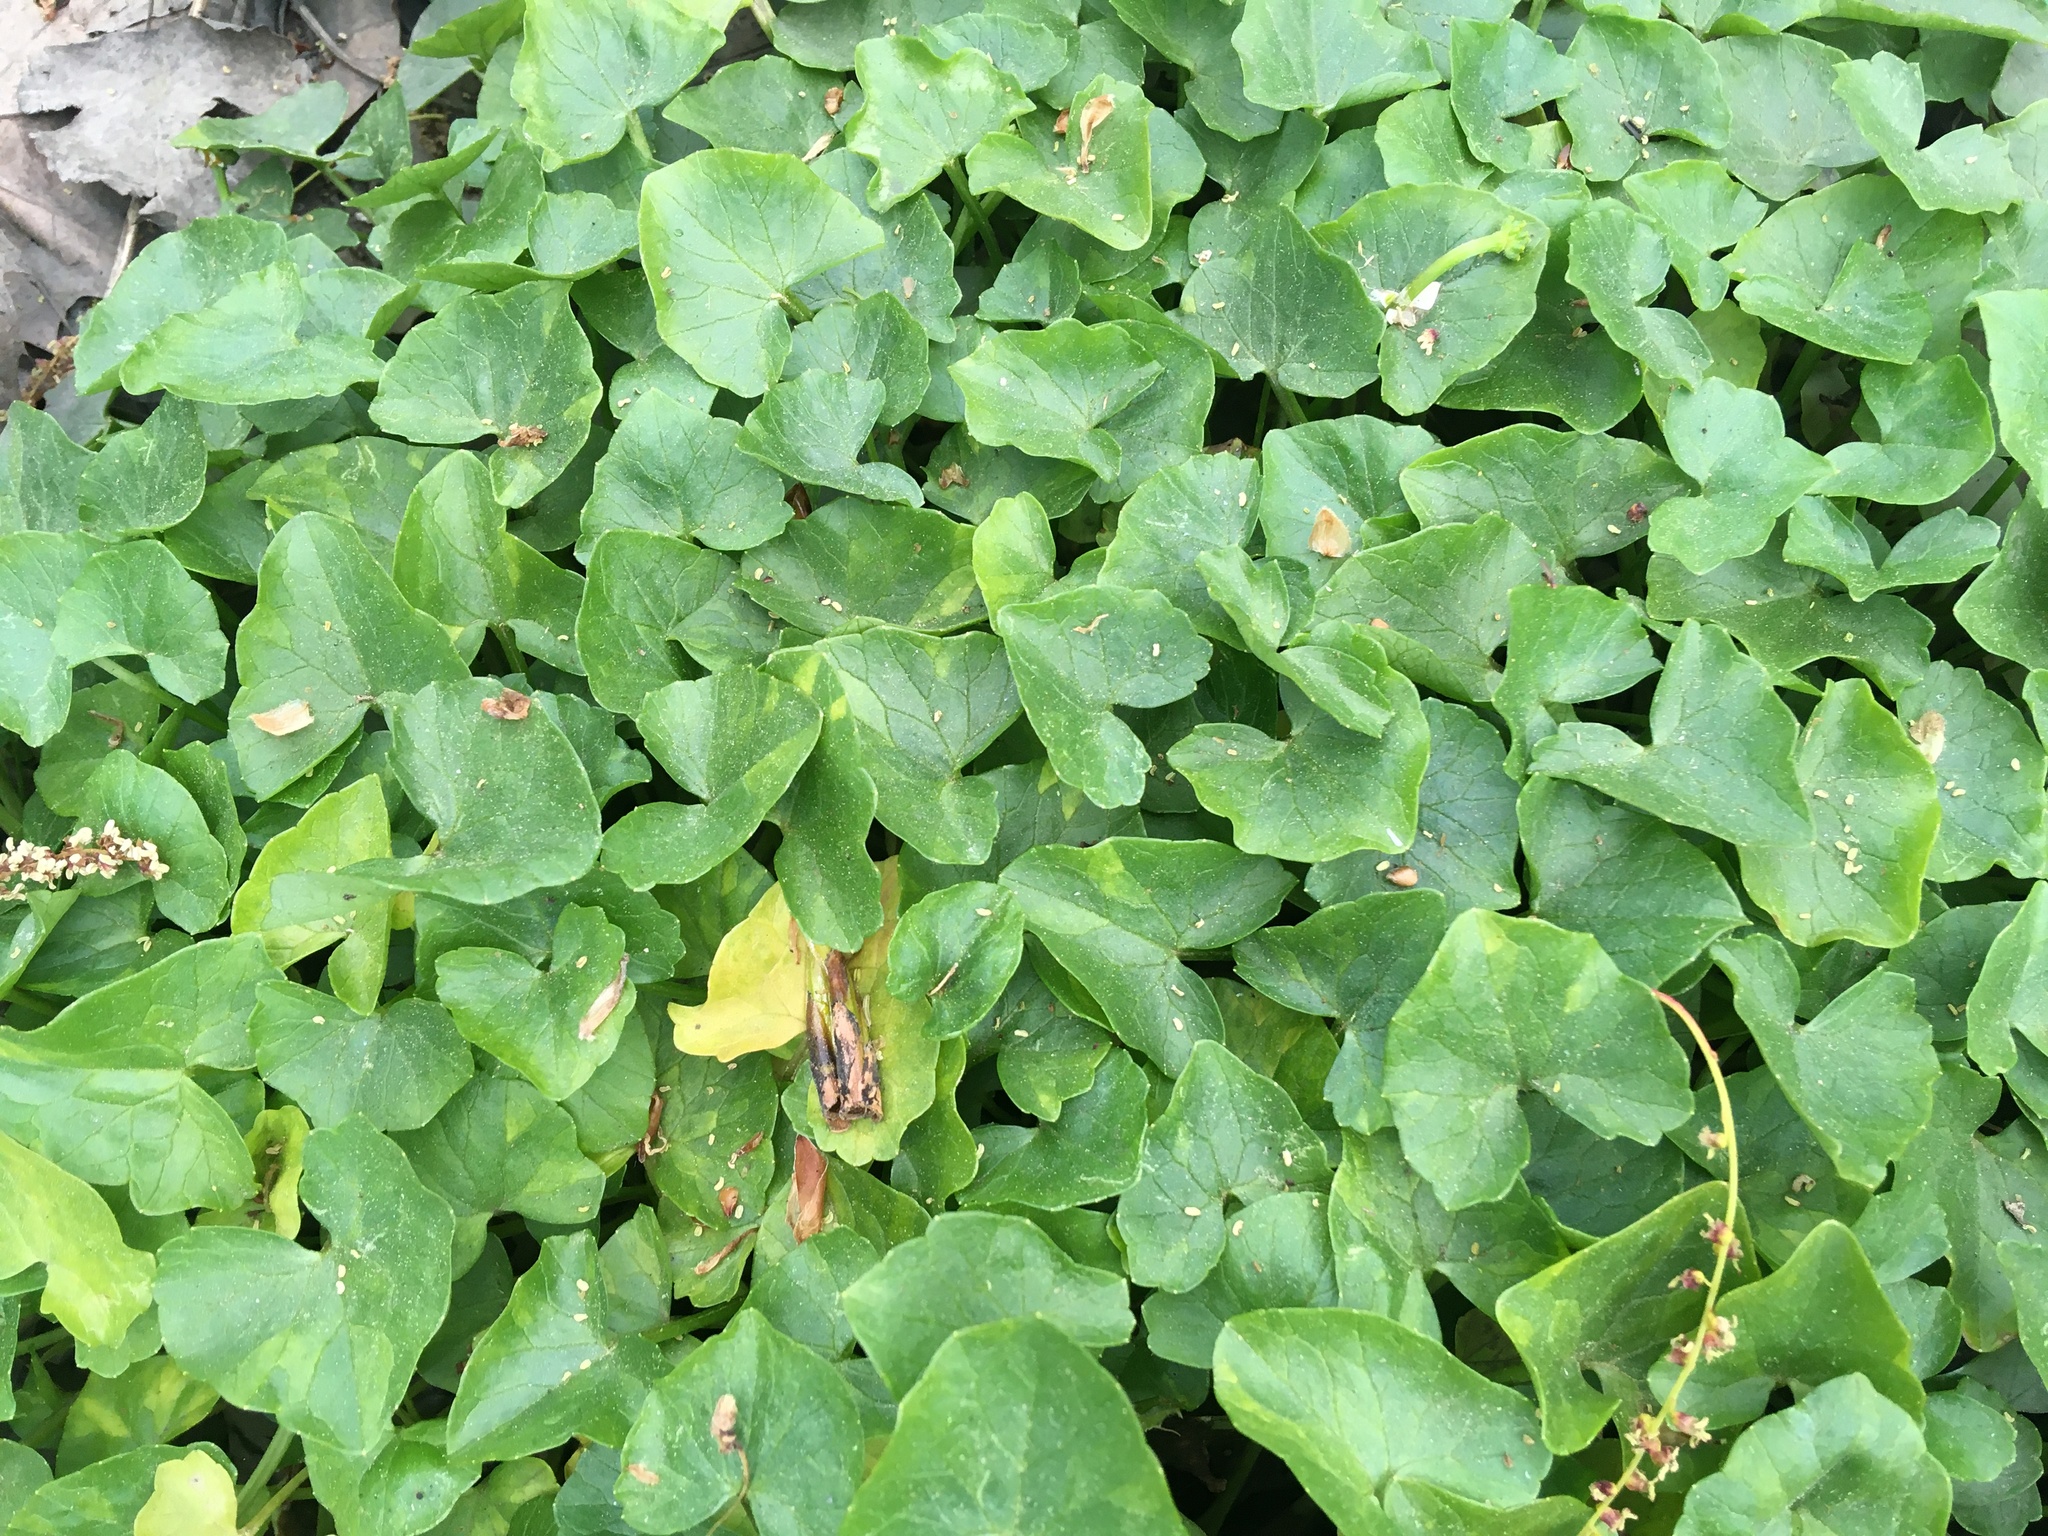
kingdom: Plantae
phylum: Tracheophyta
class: Magnoliopsida
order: Ranunculales
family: Ranunculaceae
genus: Ficaria
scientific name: Ficaria verna
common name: Lesser celandine
